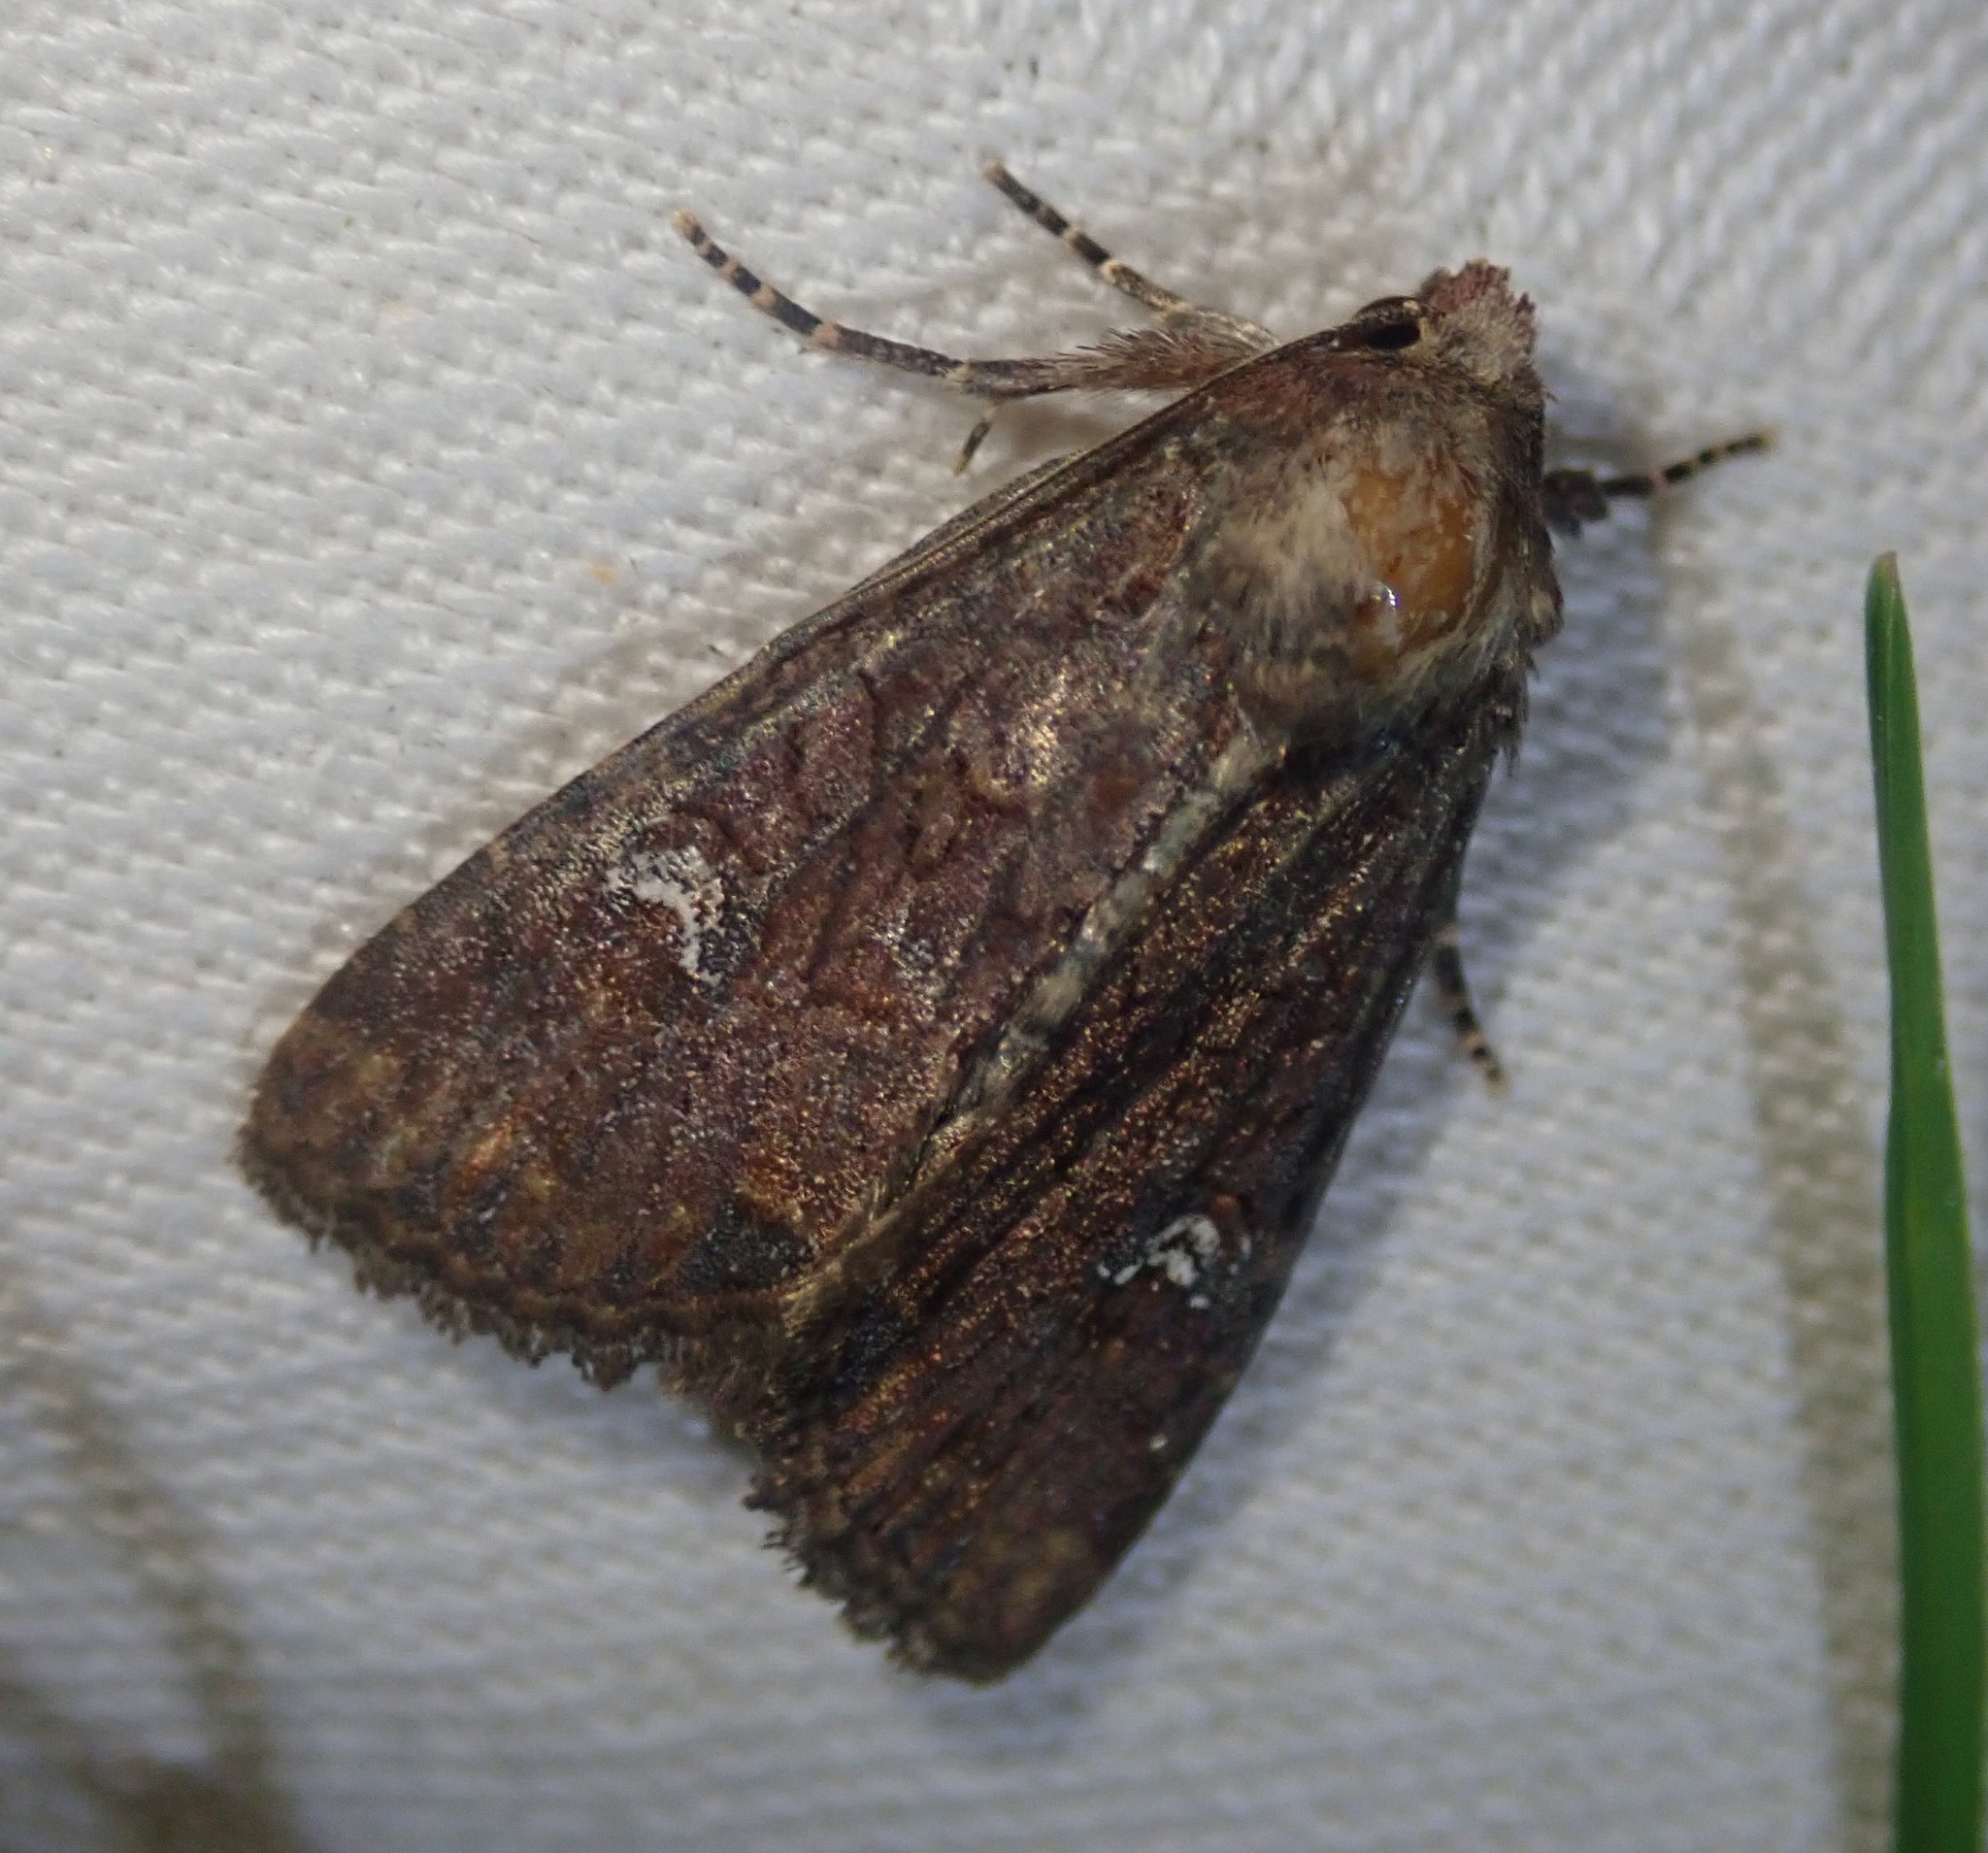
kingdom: Animalia
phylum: Arthropoda
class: Insecta
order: Lepidoptera
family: Noctuidae
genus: Mesapamea
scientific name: Mesapamea
